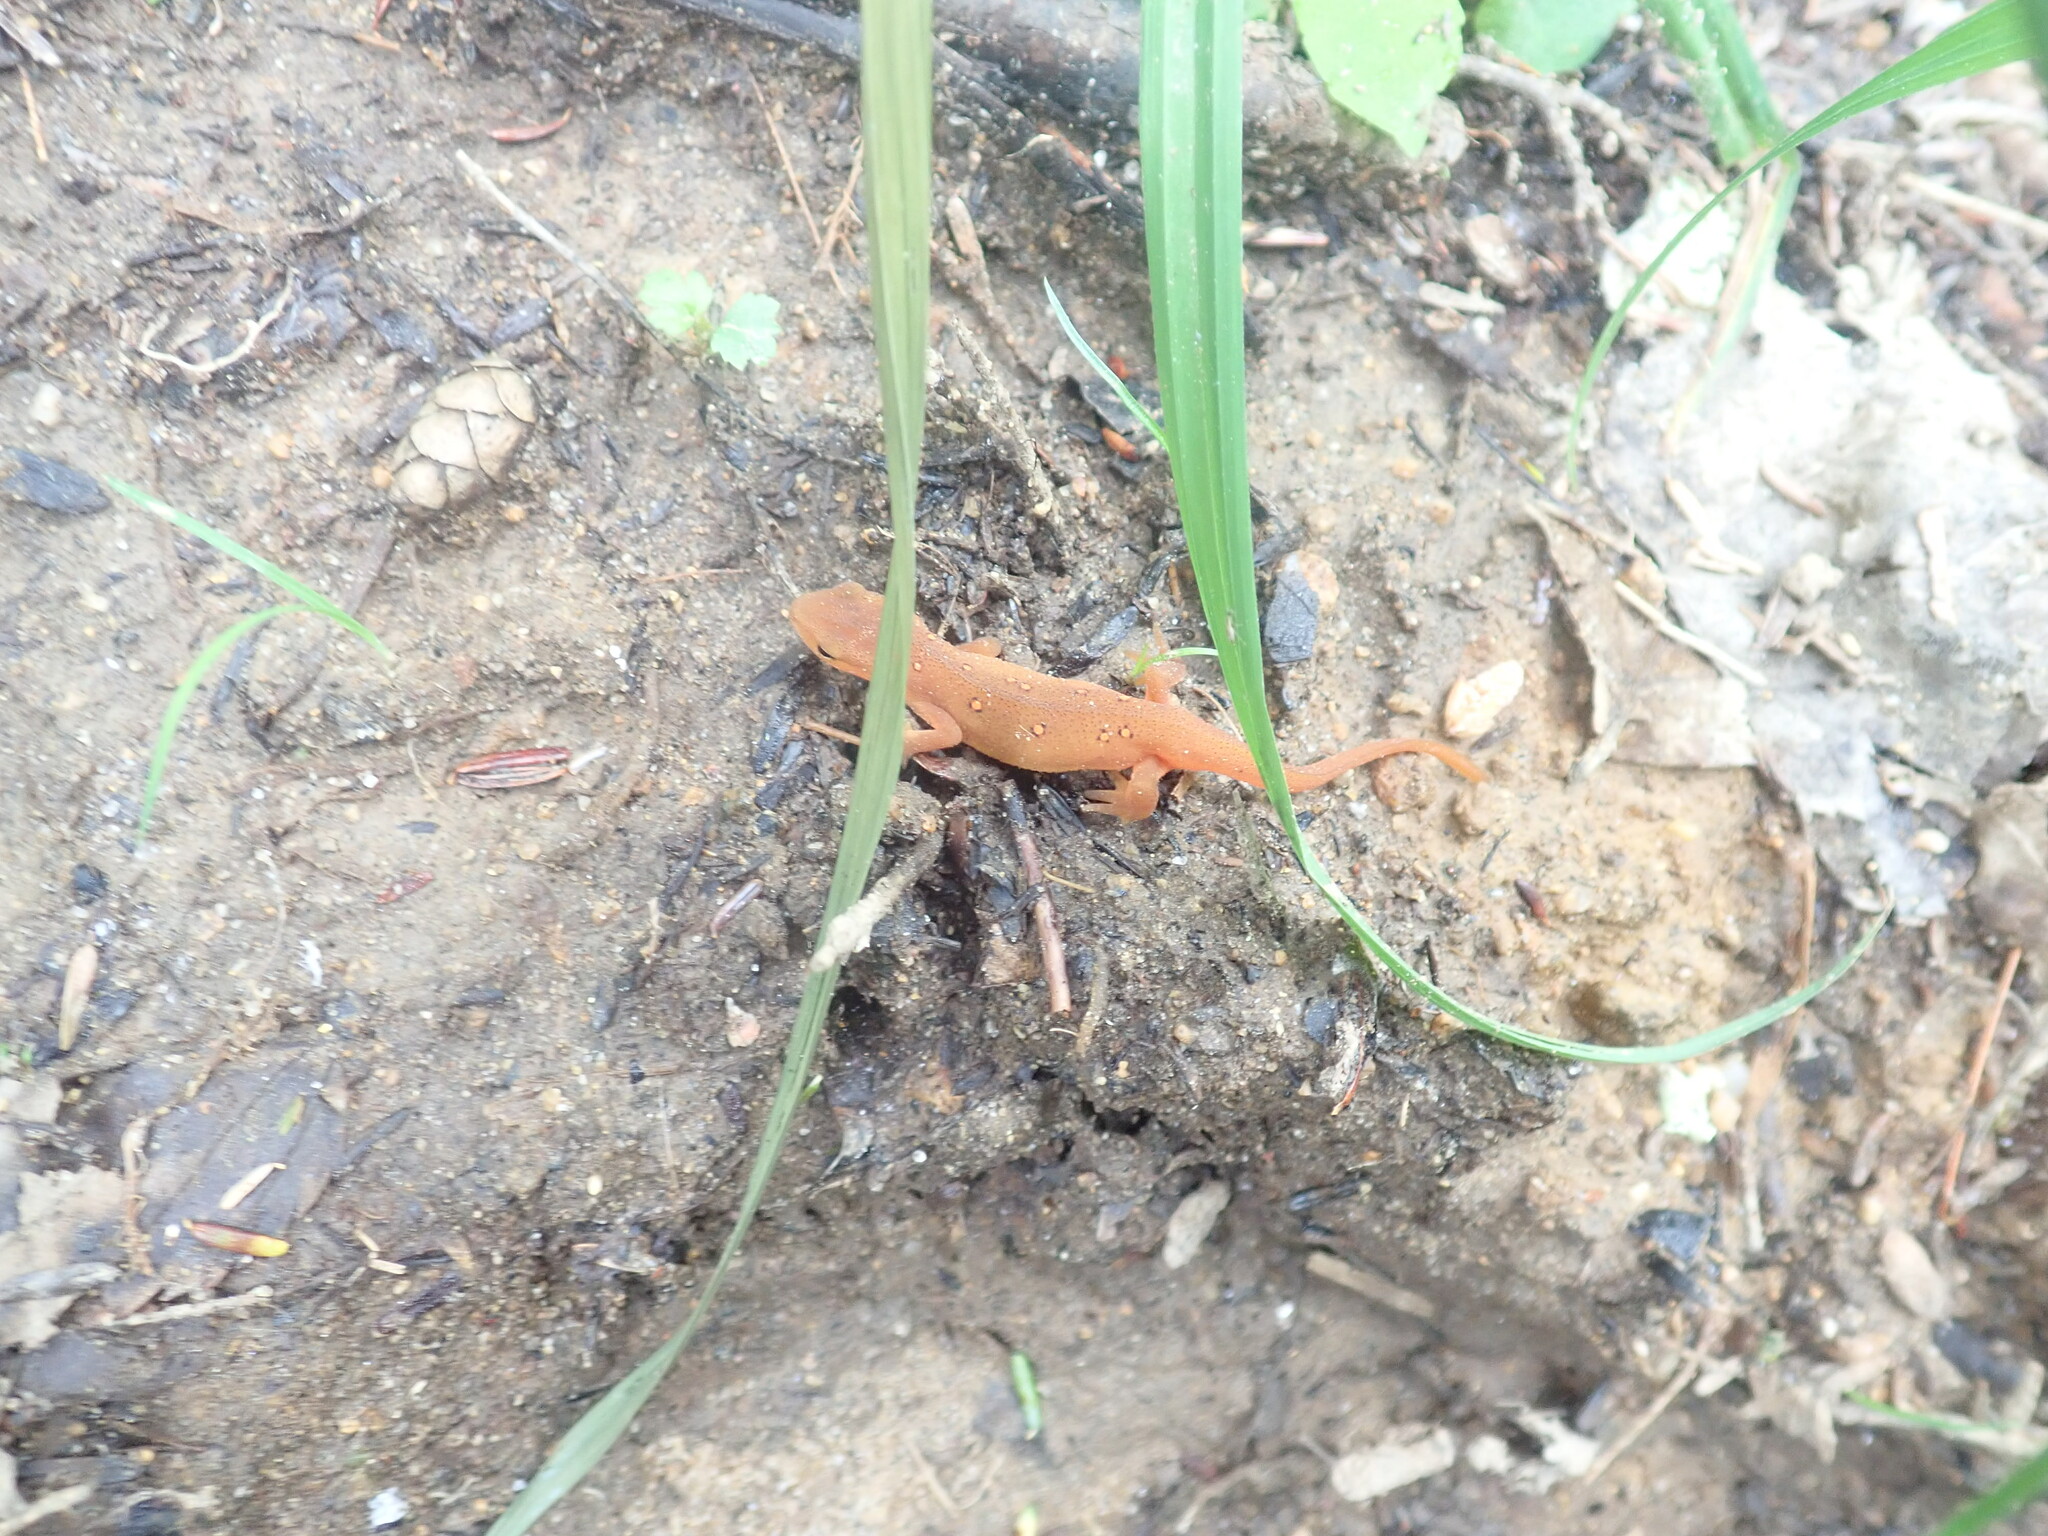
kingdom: Animalia
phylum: Chordata
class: Amphibia
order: Caudata
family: Salamandridae
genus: Notophthalmus
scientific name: Notophthalmus viridescens
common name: Eastern newt
